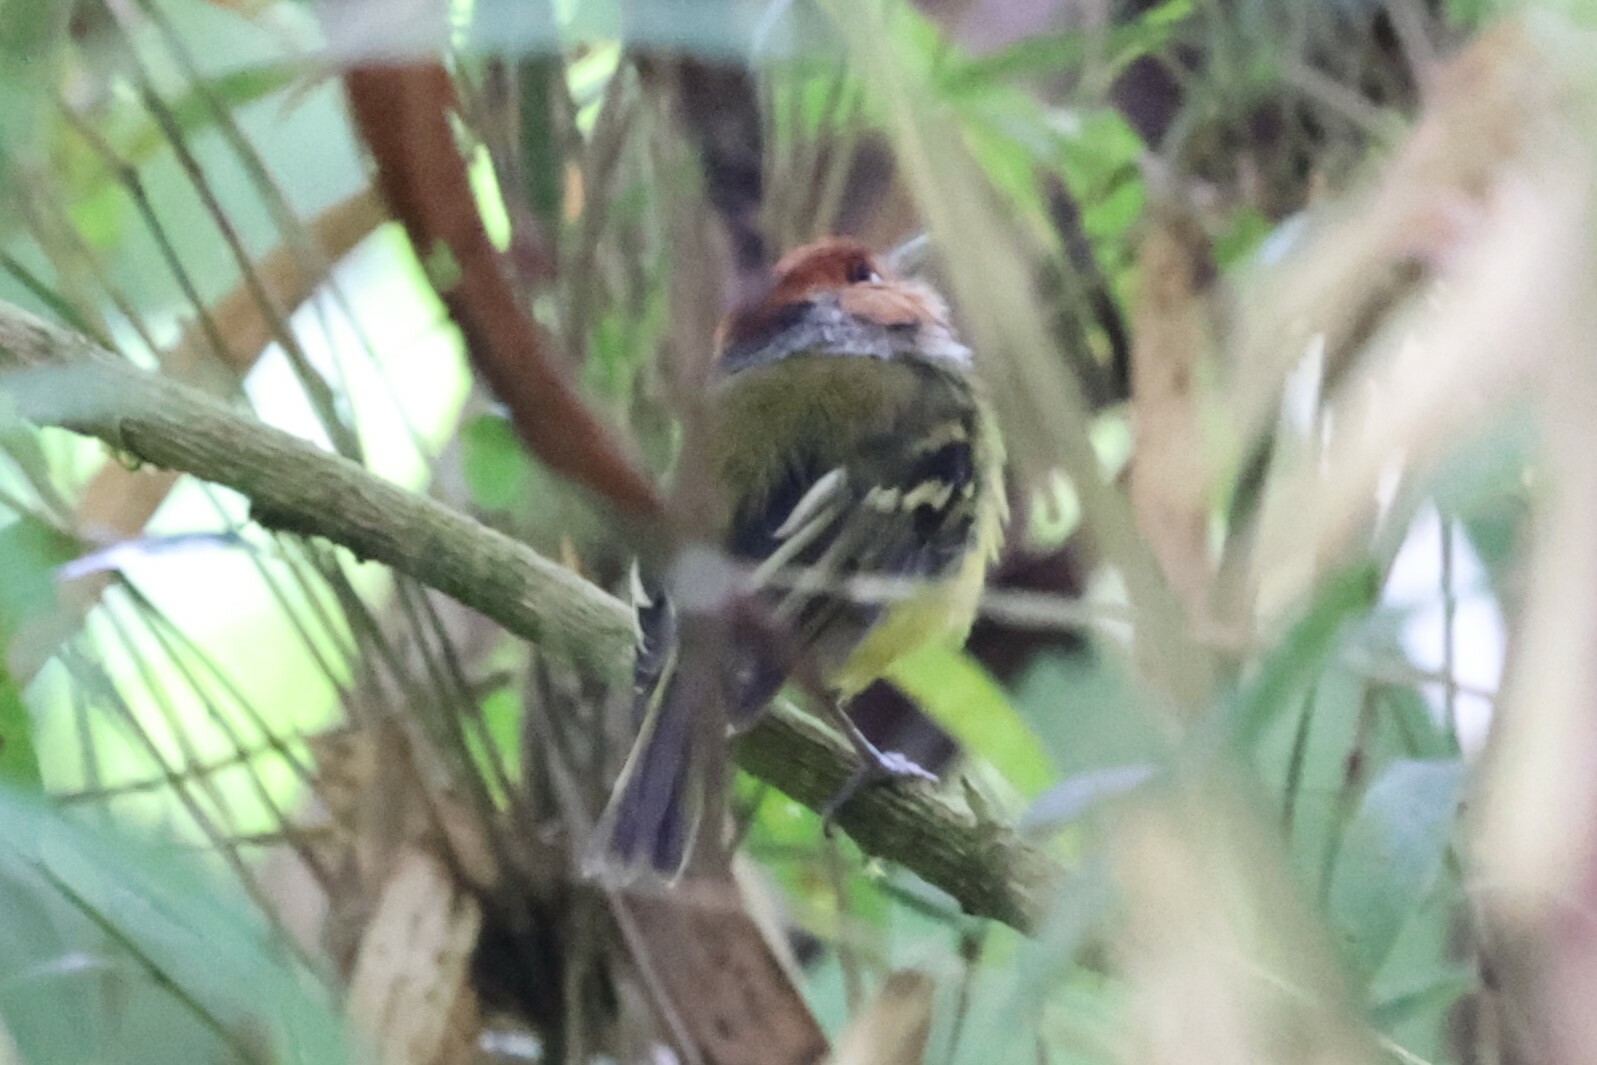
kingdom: Animalia
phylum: Chordata
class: Aves
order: Passeriformes
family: Tyrannidae
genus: Poecilotriccus
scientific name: Poecilotriccus ruficeps
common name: Rufous-crowned tody-flycatcher
